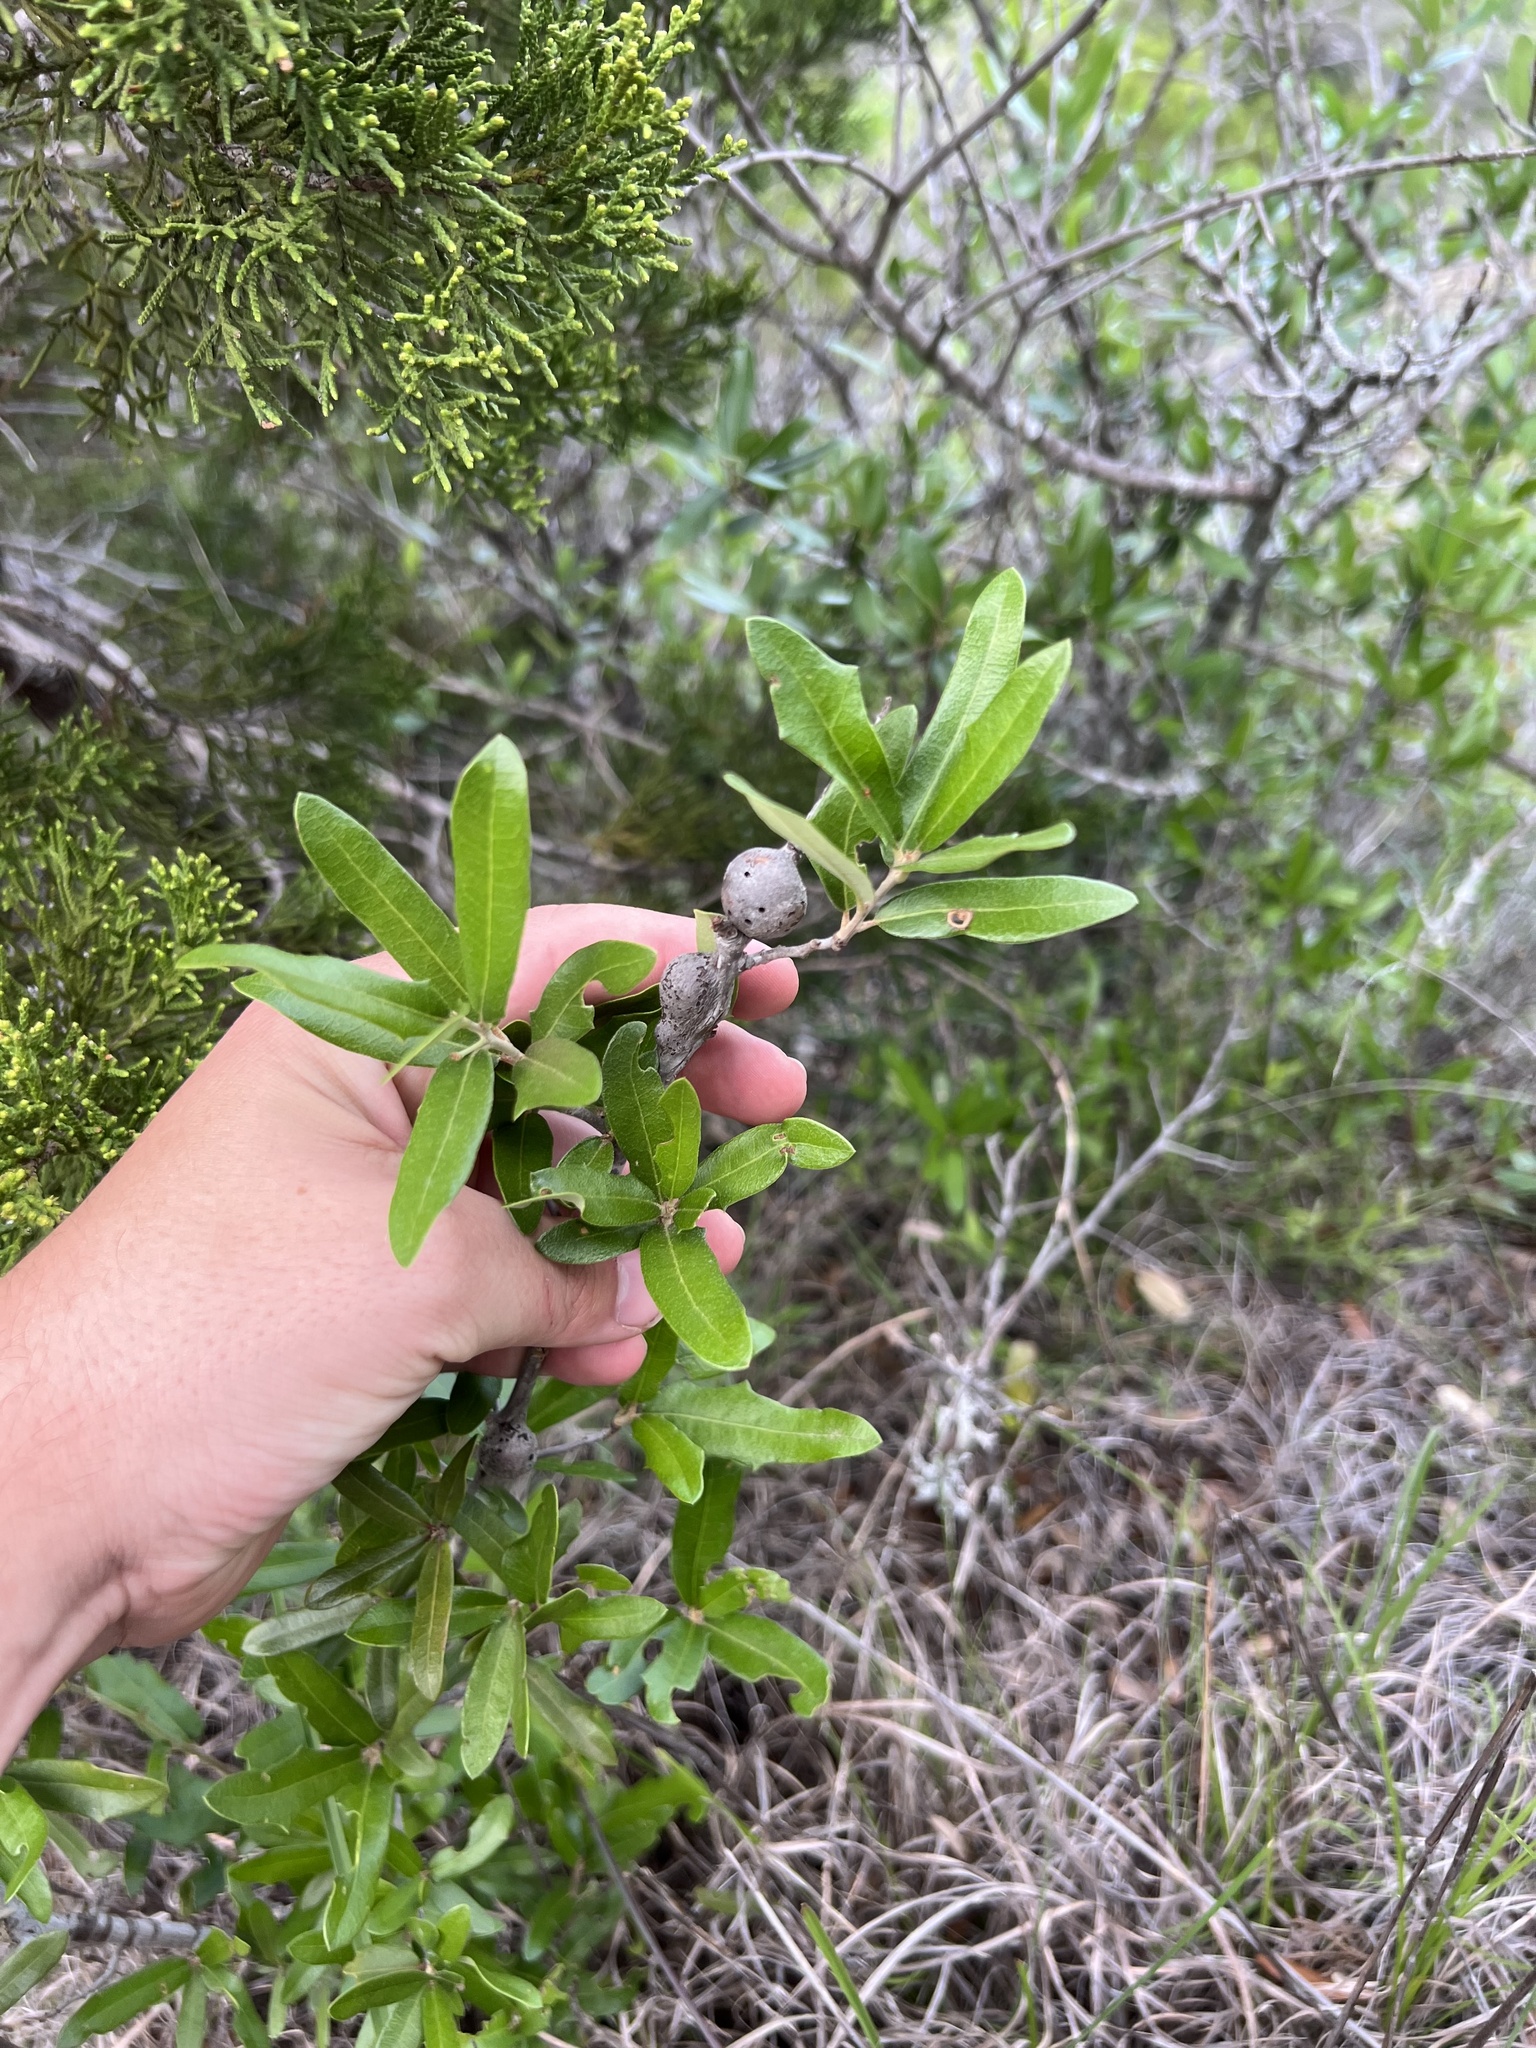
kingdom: Animalia
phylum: Arthropoda
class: Insecta
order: Hymenoptera
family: Cynipidae
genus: Callirhytis
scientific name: Callirhytis
